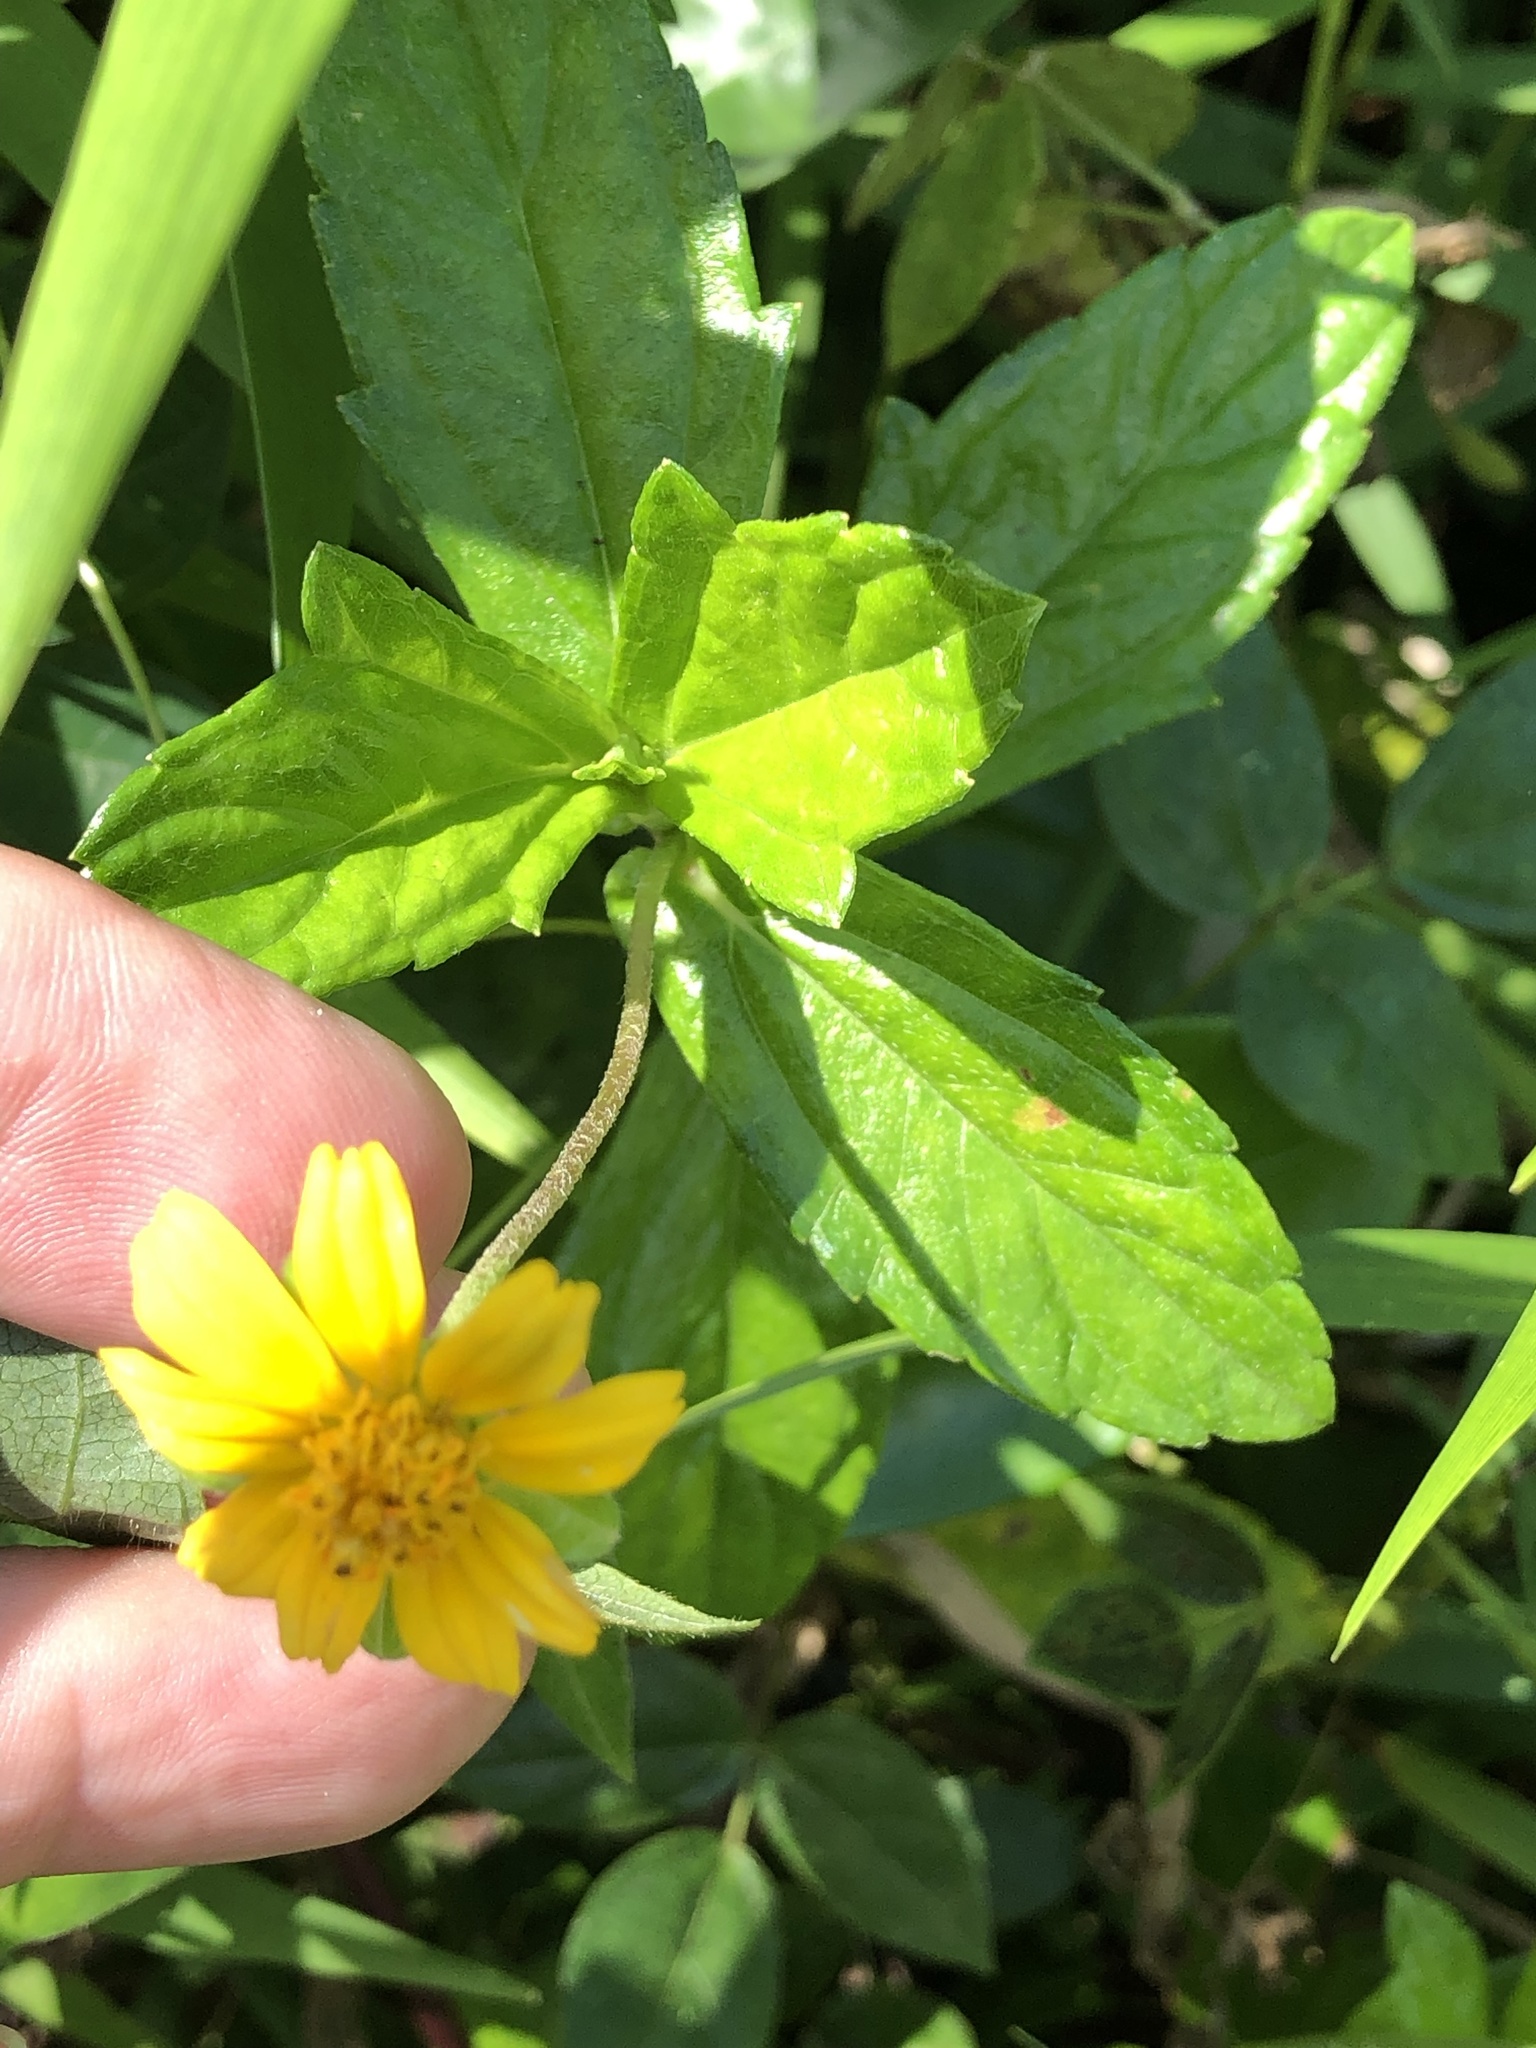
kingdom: Plantae
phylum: Tracheophyta
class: Magnoliopsida
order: Asterales
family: Asteraceae
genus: Sphagneticola
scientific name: Sphagneticola trilobata
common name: Bay biscayne creeping-oxeye
